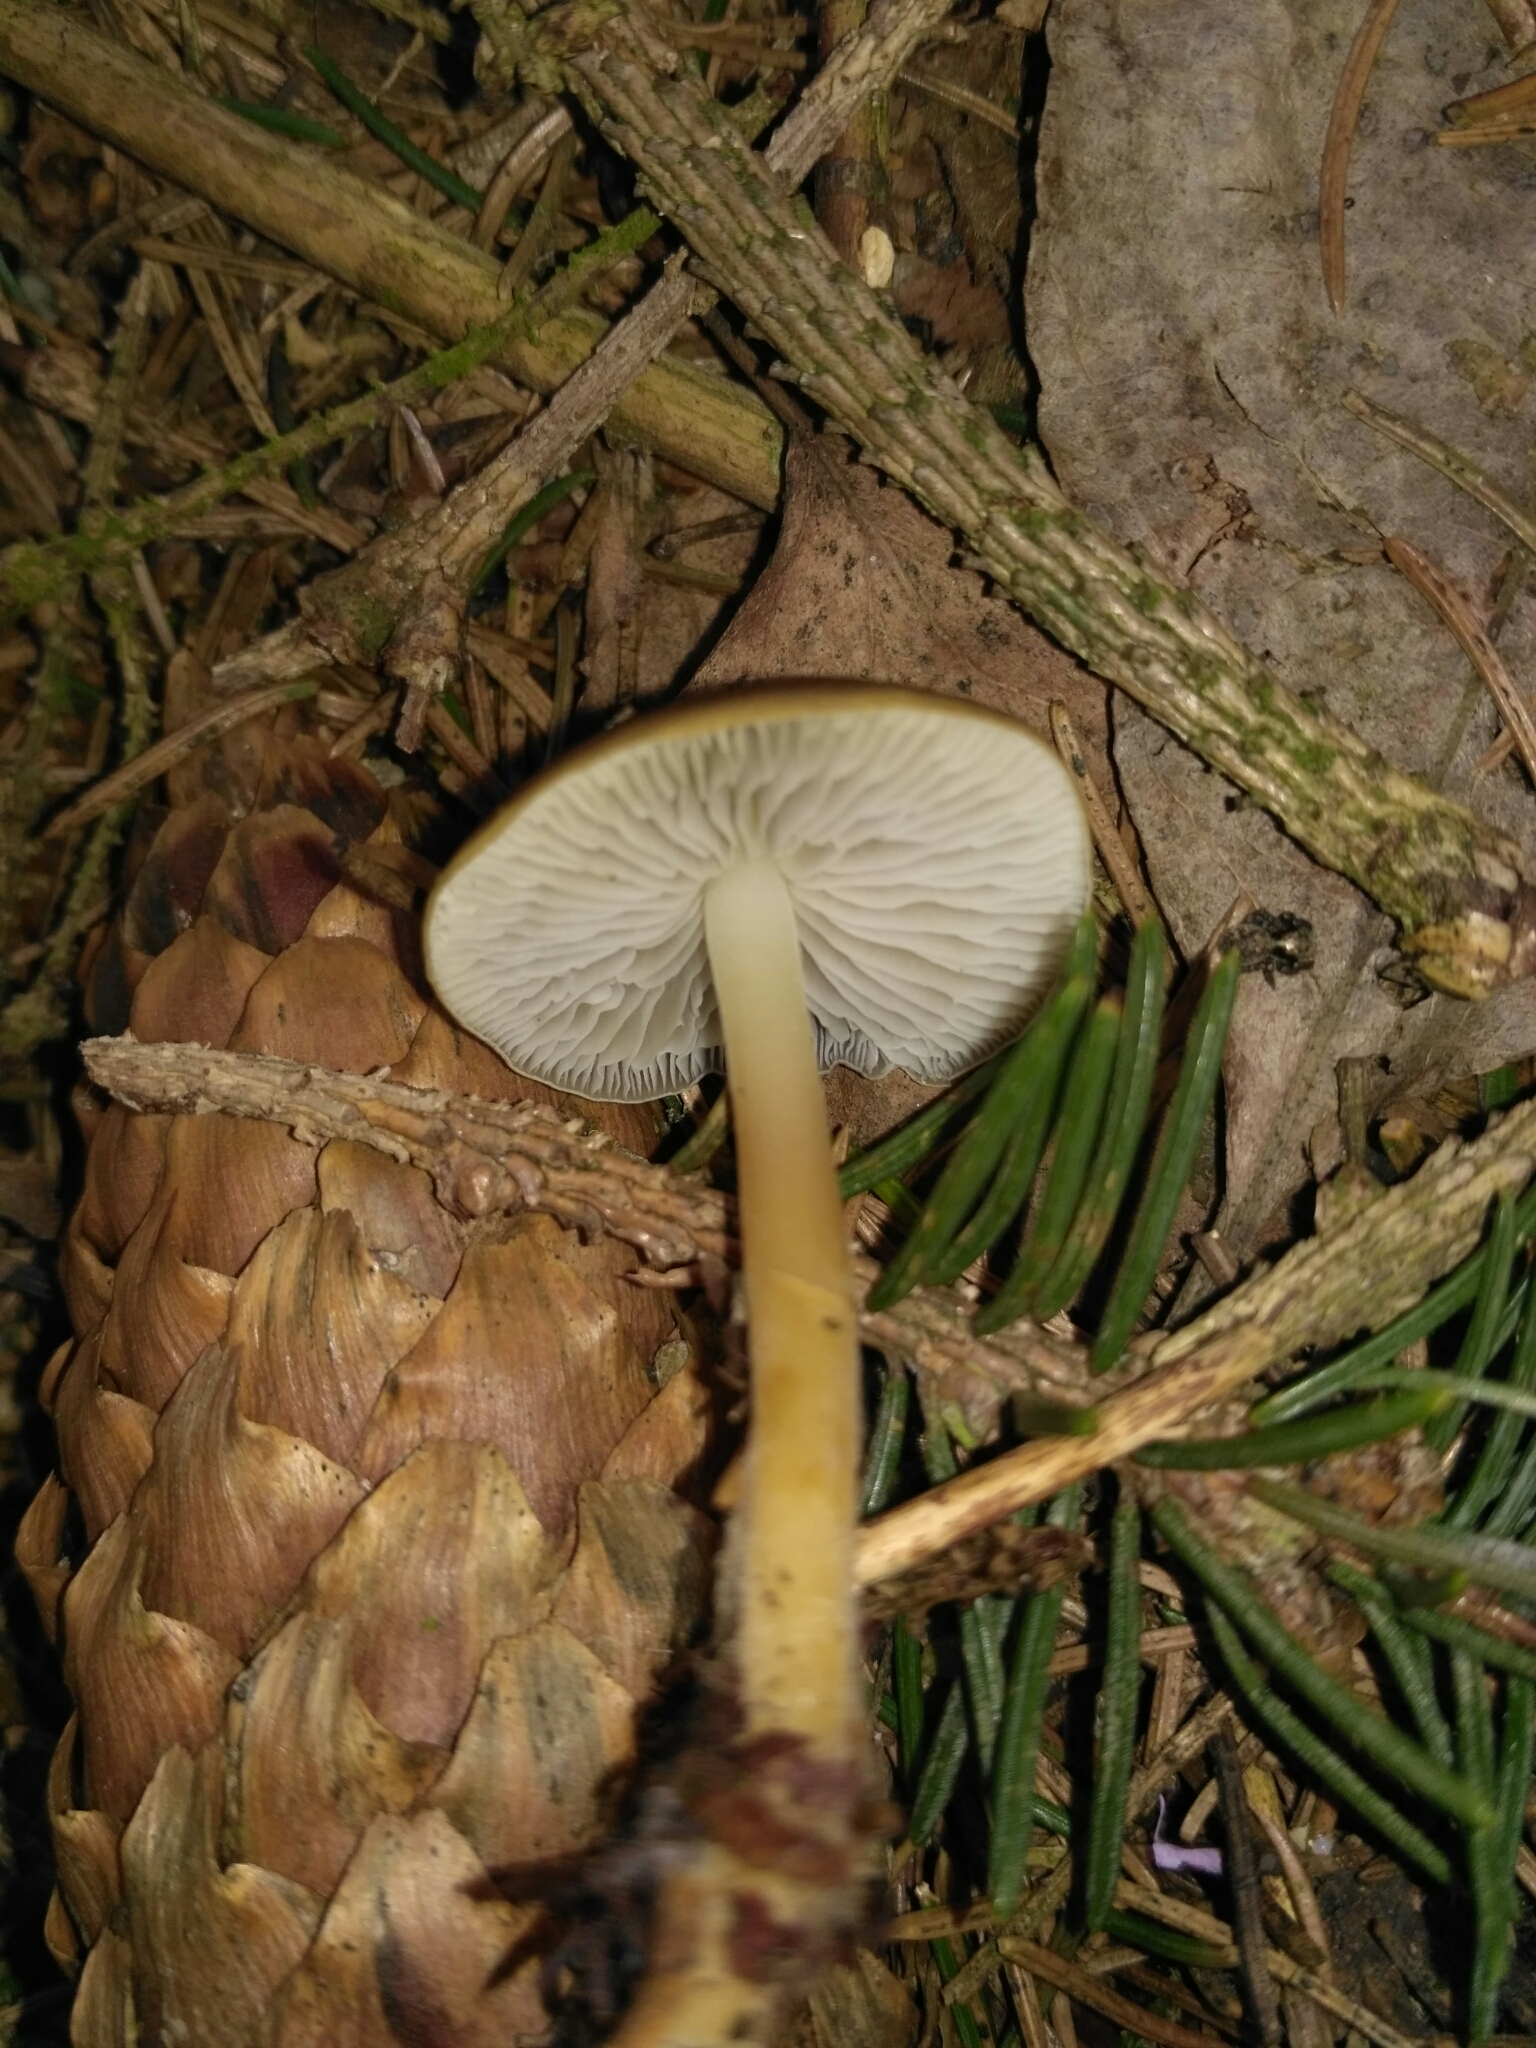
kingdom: Fungi
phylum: Basidiomycota
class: Agaricomycetes
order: Agaricales
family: Physalacriaceae
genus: Strobilurus
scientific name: Strobilurus esculentus
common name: Sprucecone cap
